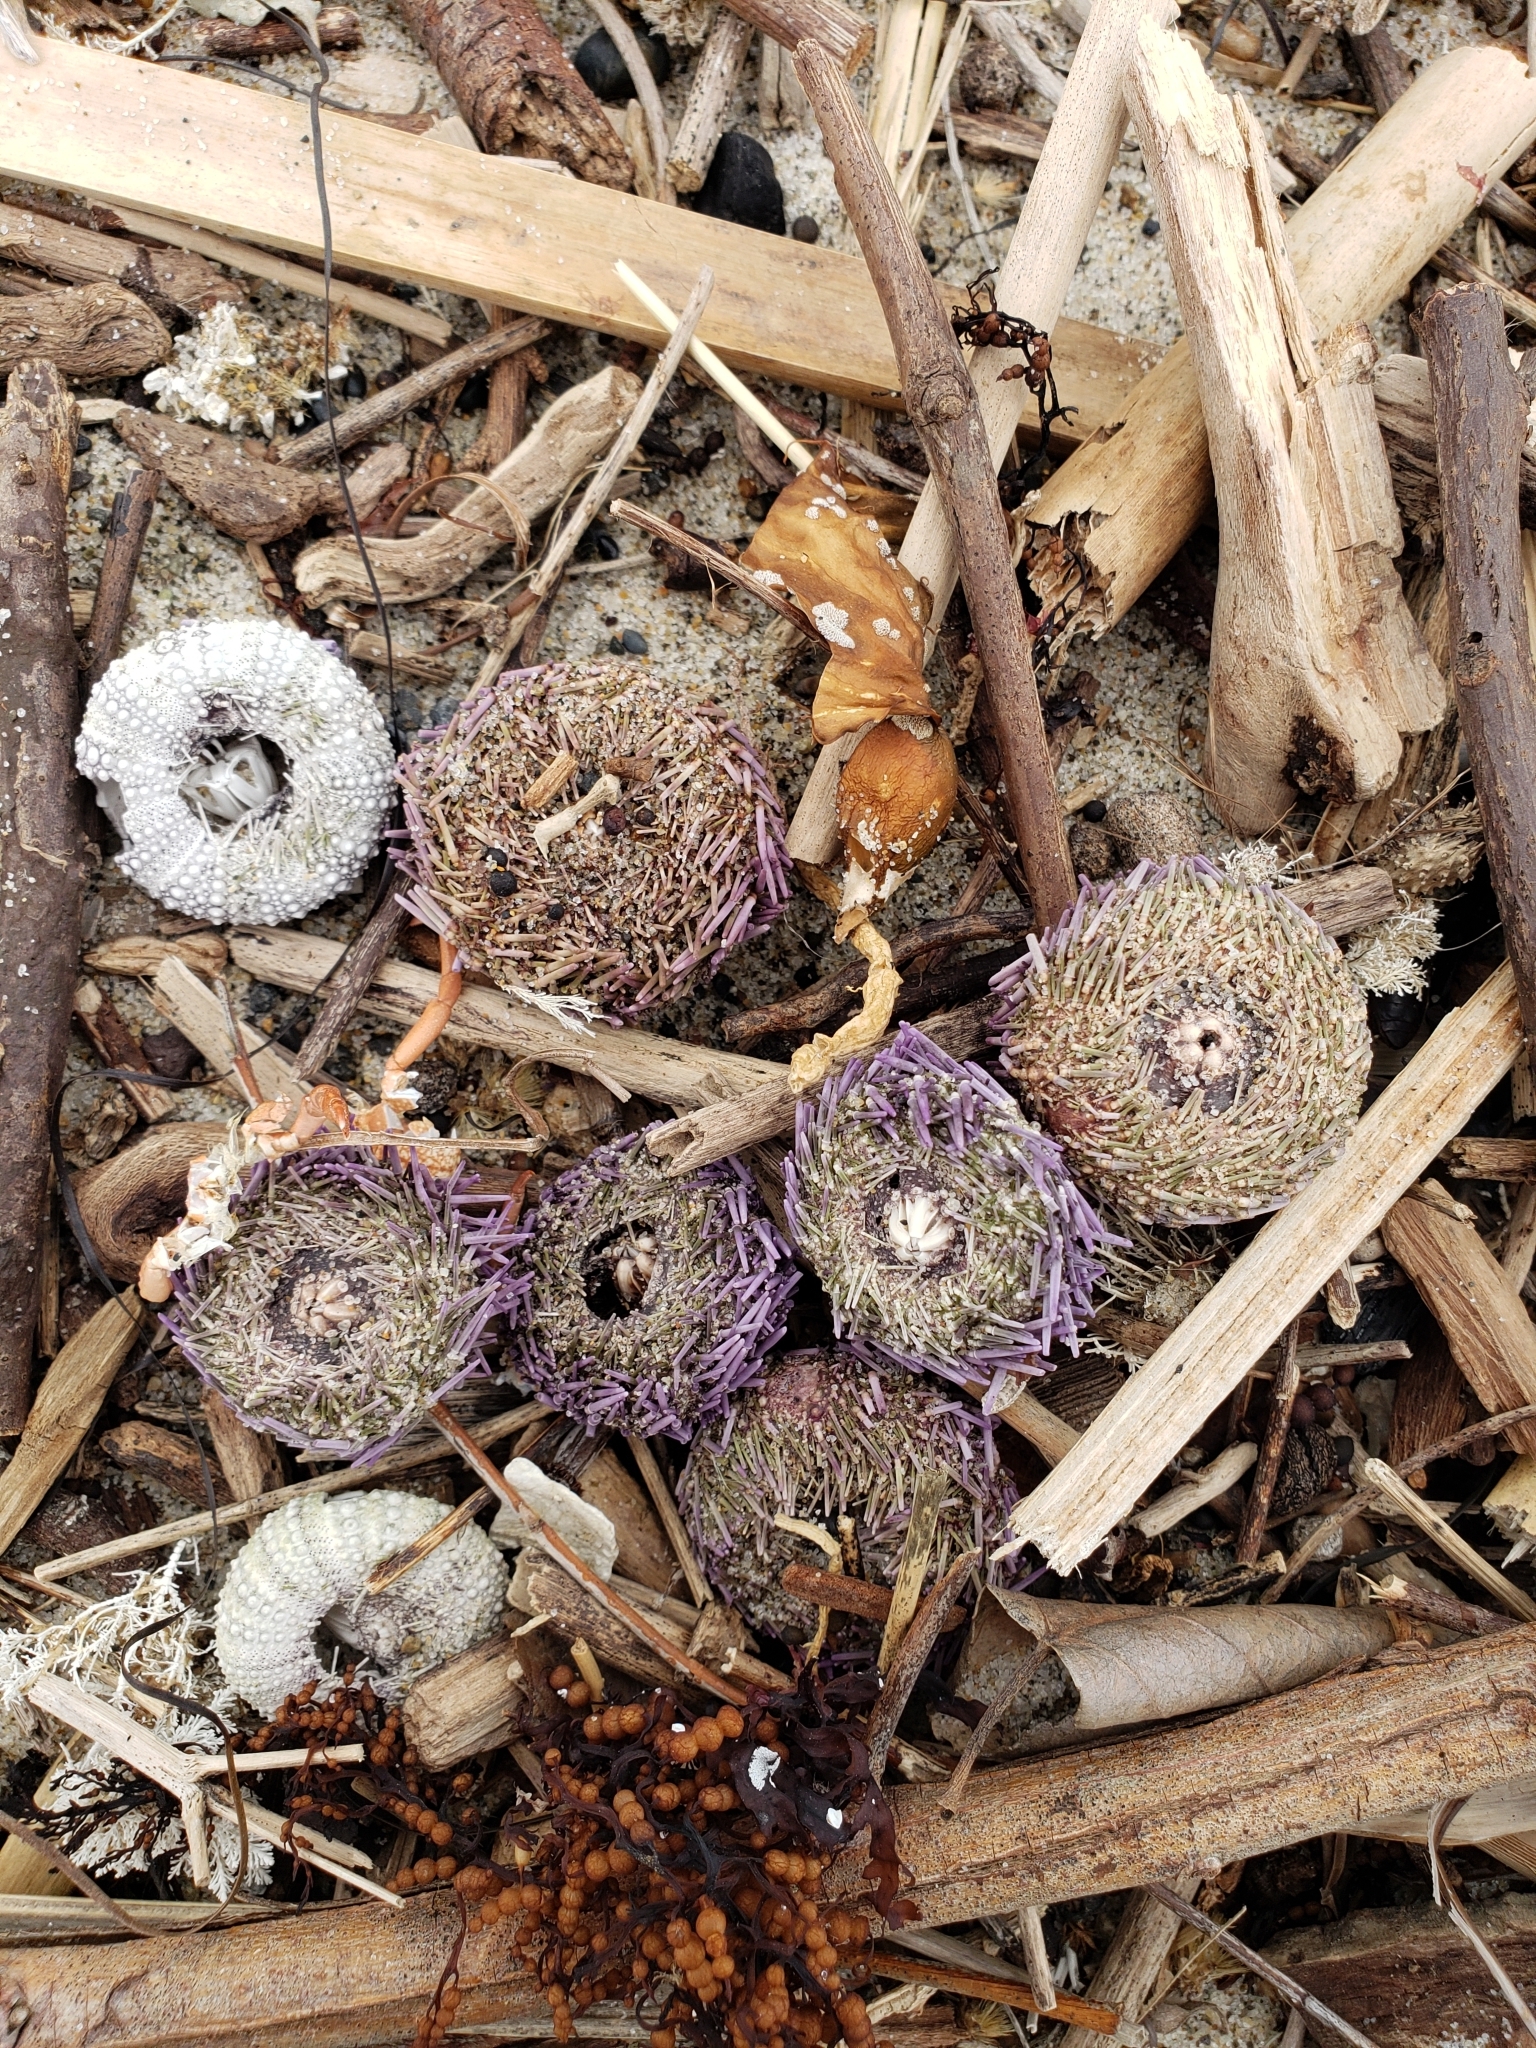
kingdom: Animalia
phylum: Echinodermata
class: Echinoidea
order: Camarodonta
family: Strongylocentrotidae
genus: Strongylocentrotus
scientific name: Strongylocentrotus purpuratus
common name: Purple sea urchin
